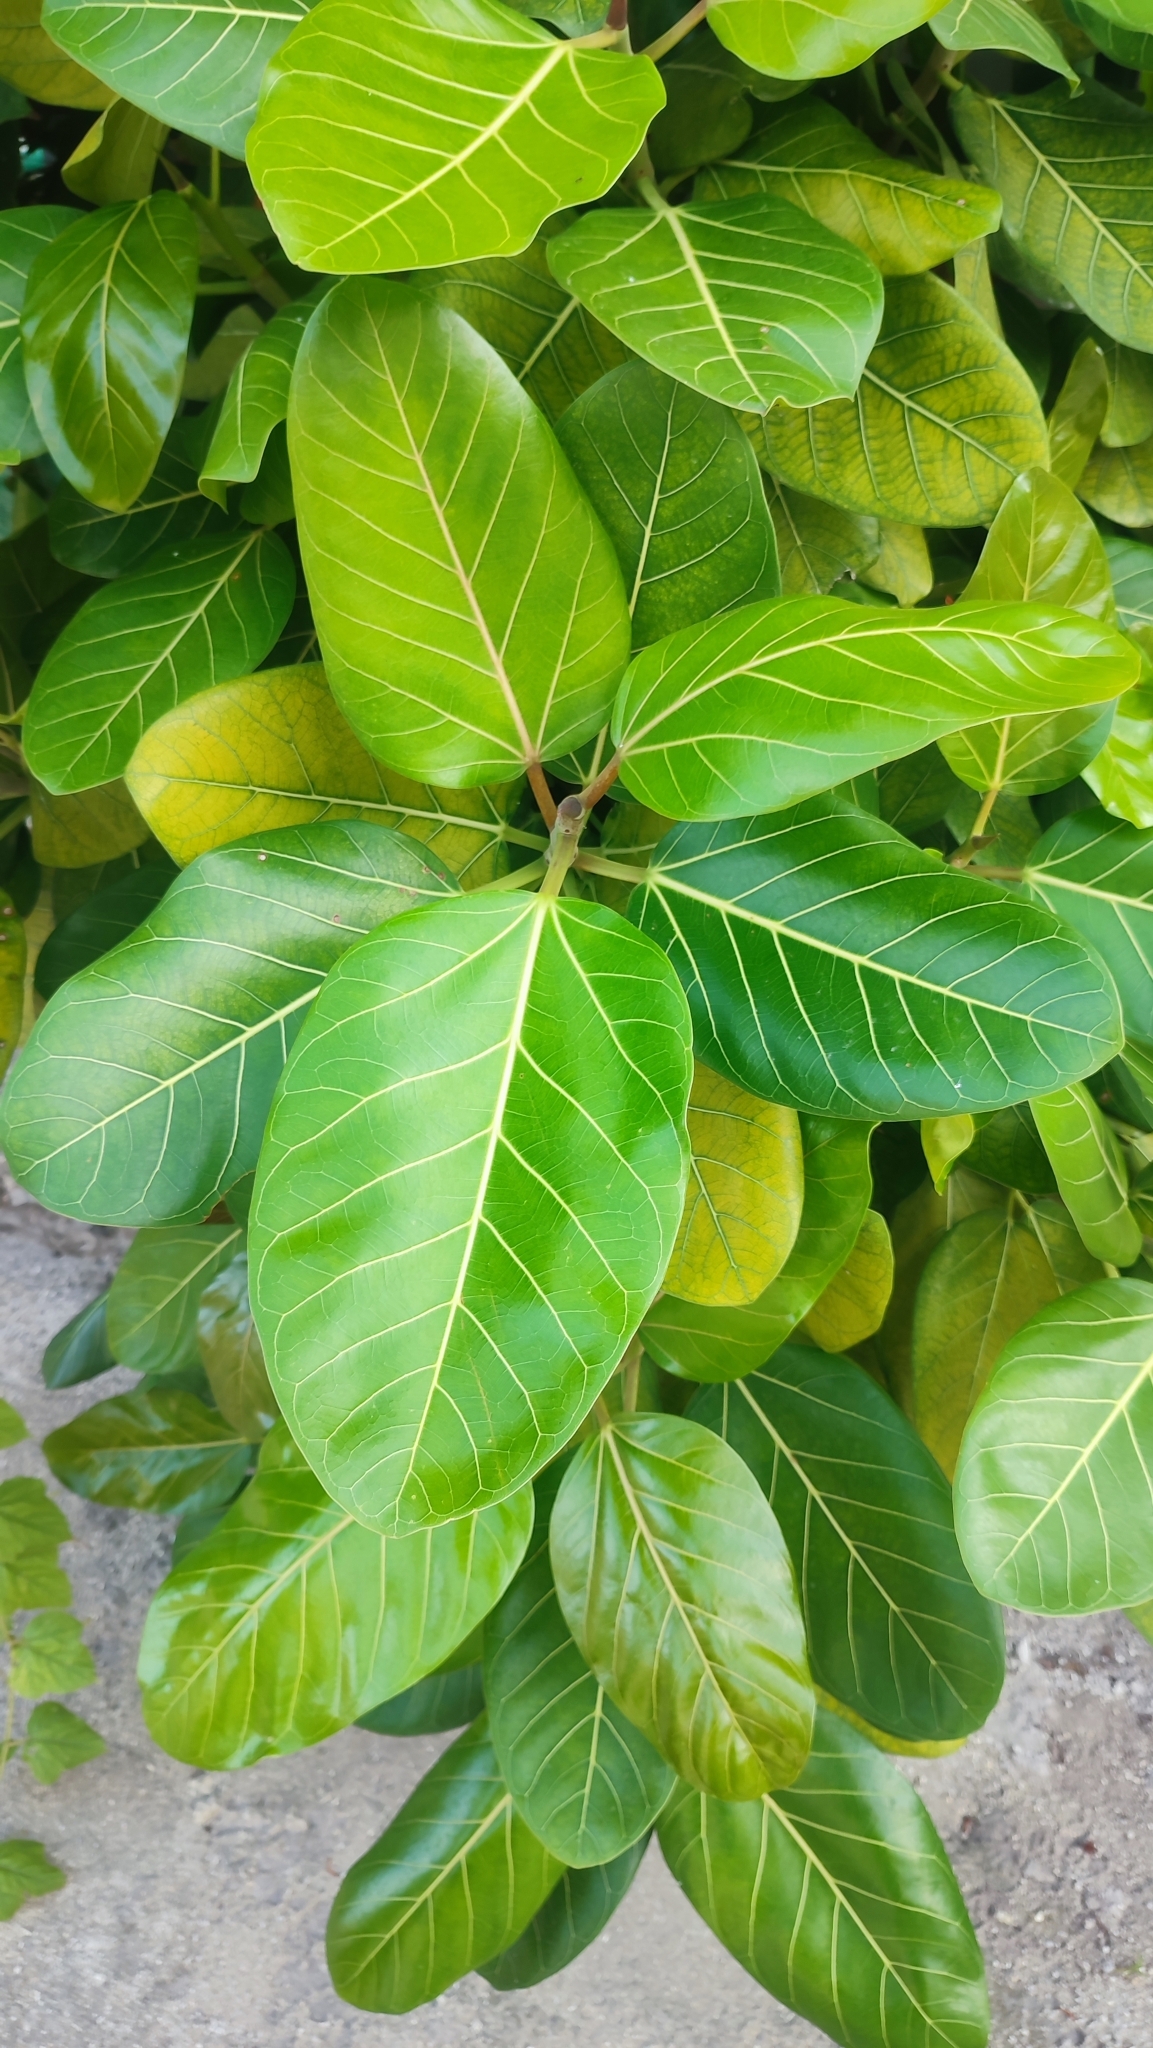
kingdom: Plantae
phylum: Tracheophyta
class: Magnoliopsida
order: Rosales
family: Moraceae
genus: Ficus
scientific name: Ficus benghalensis
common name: Indian banyan
